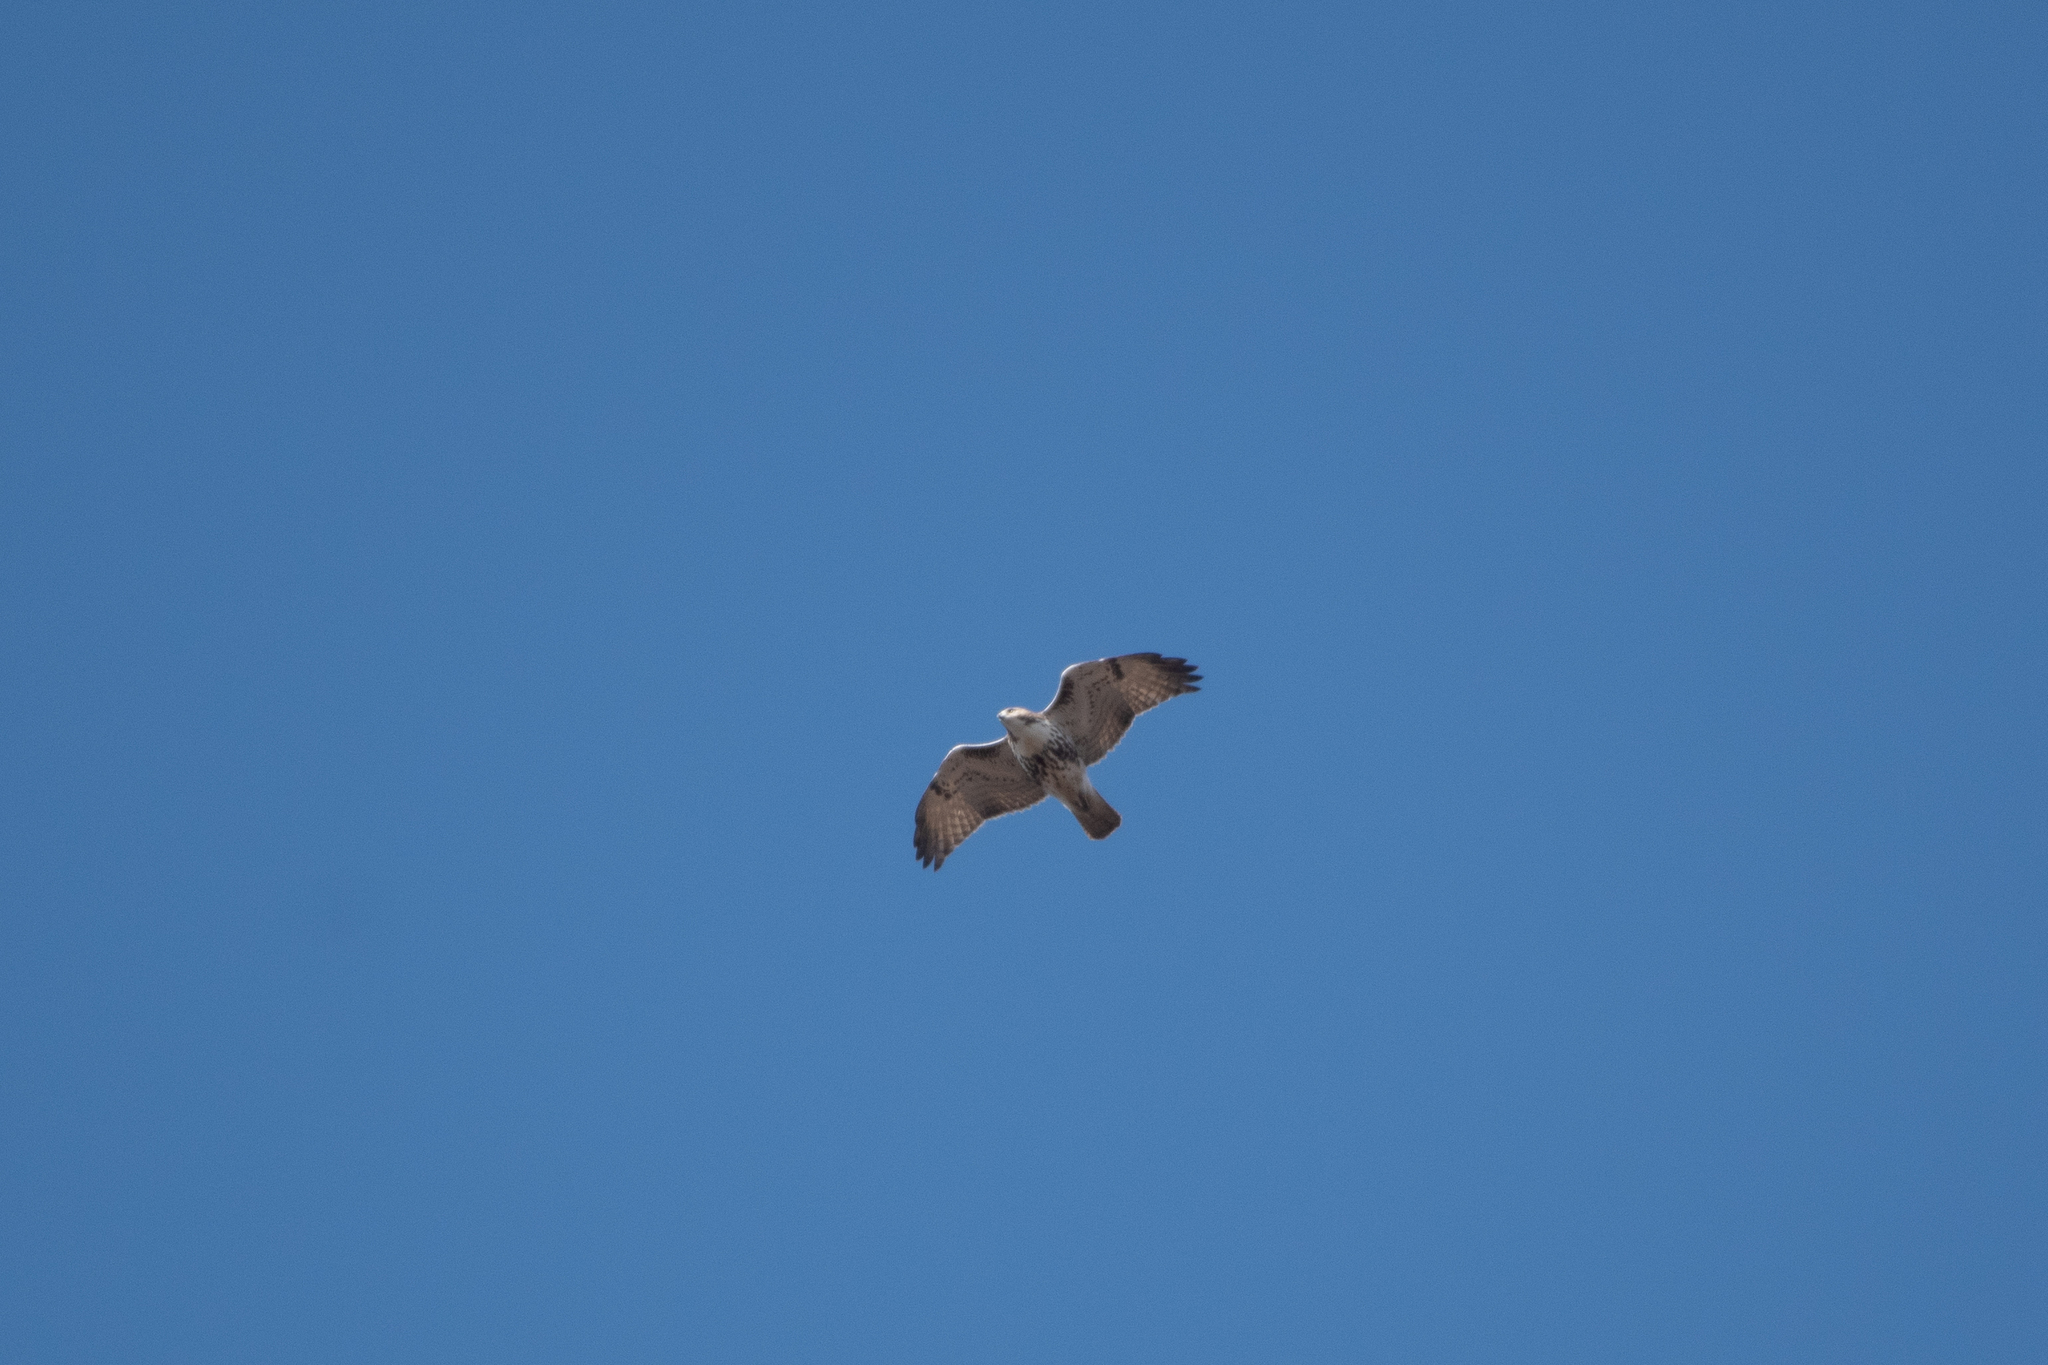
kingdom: Animalia
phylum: Chordata
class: Aves
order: Accipitriformes
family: Accipitridae
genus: Buteo
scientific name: Buteo jamaicensis
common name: Red-tailed hawk
